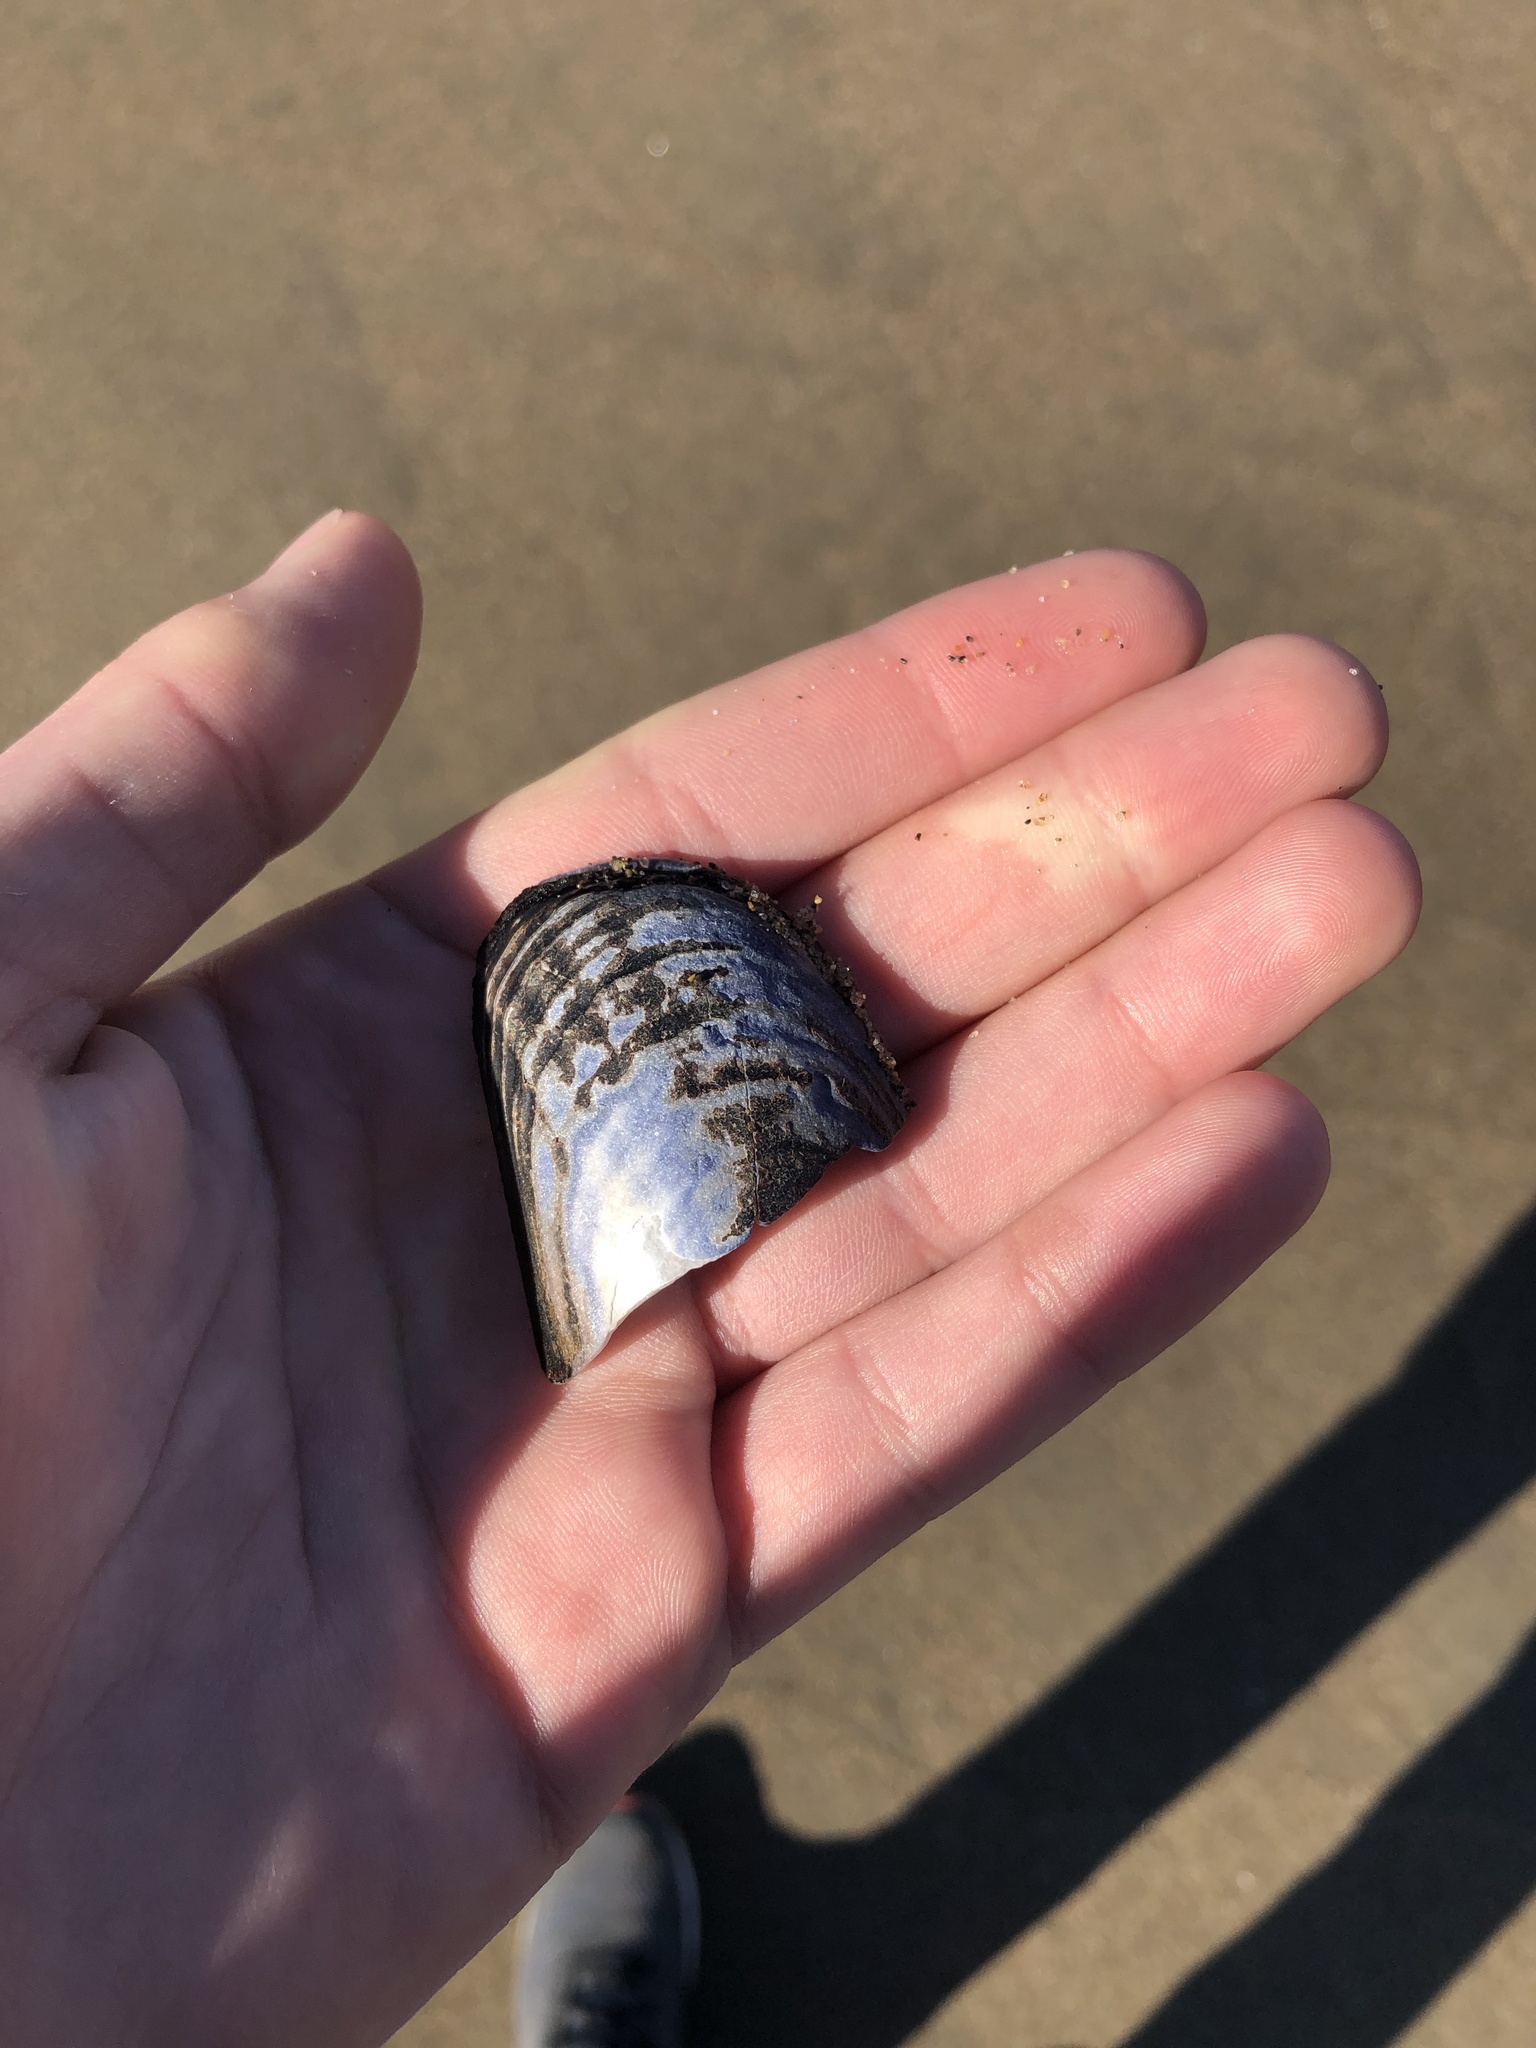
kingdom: Animalia
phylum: Mollusca
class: Bivalvia
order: Mytilida
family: Mytilidae
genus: Mytilus
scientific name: Mytilus californianus
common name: California mussel
